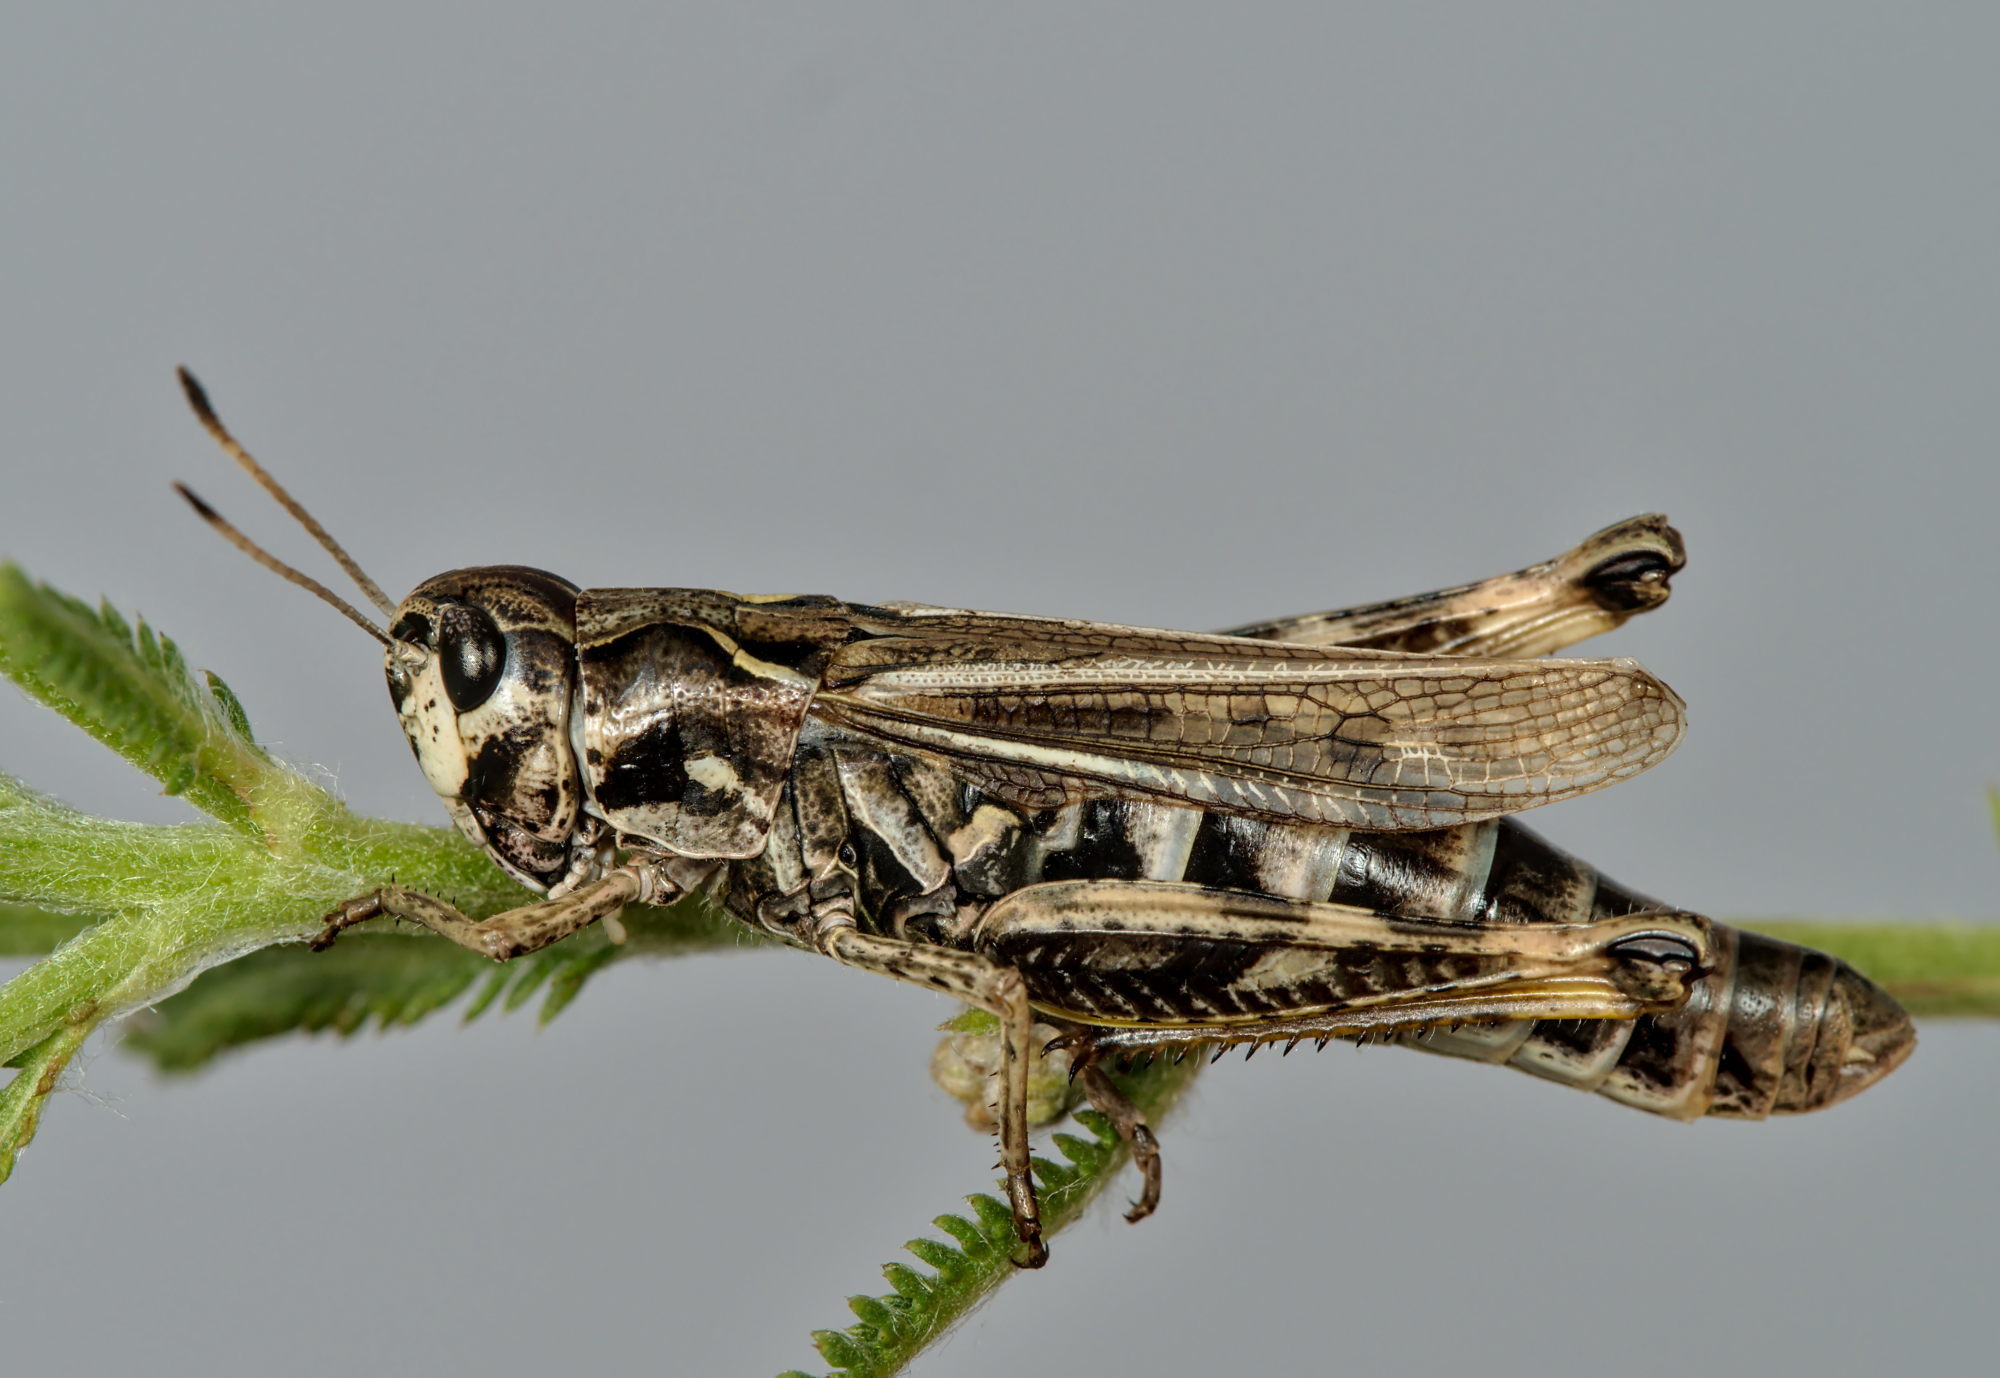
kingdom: Animalia
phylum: Arthropoda
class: Insecta
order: Orthoptera
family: Acrididae
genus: Gomphocerus
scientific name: Gomphocerus sibiricus
